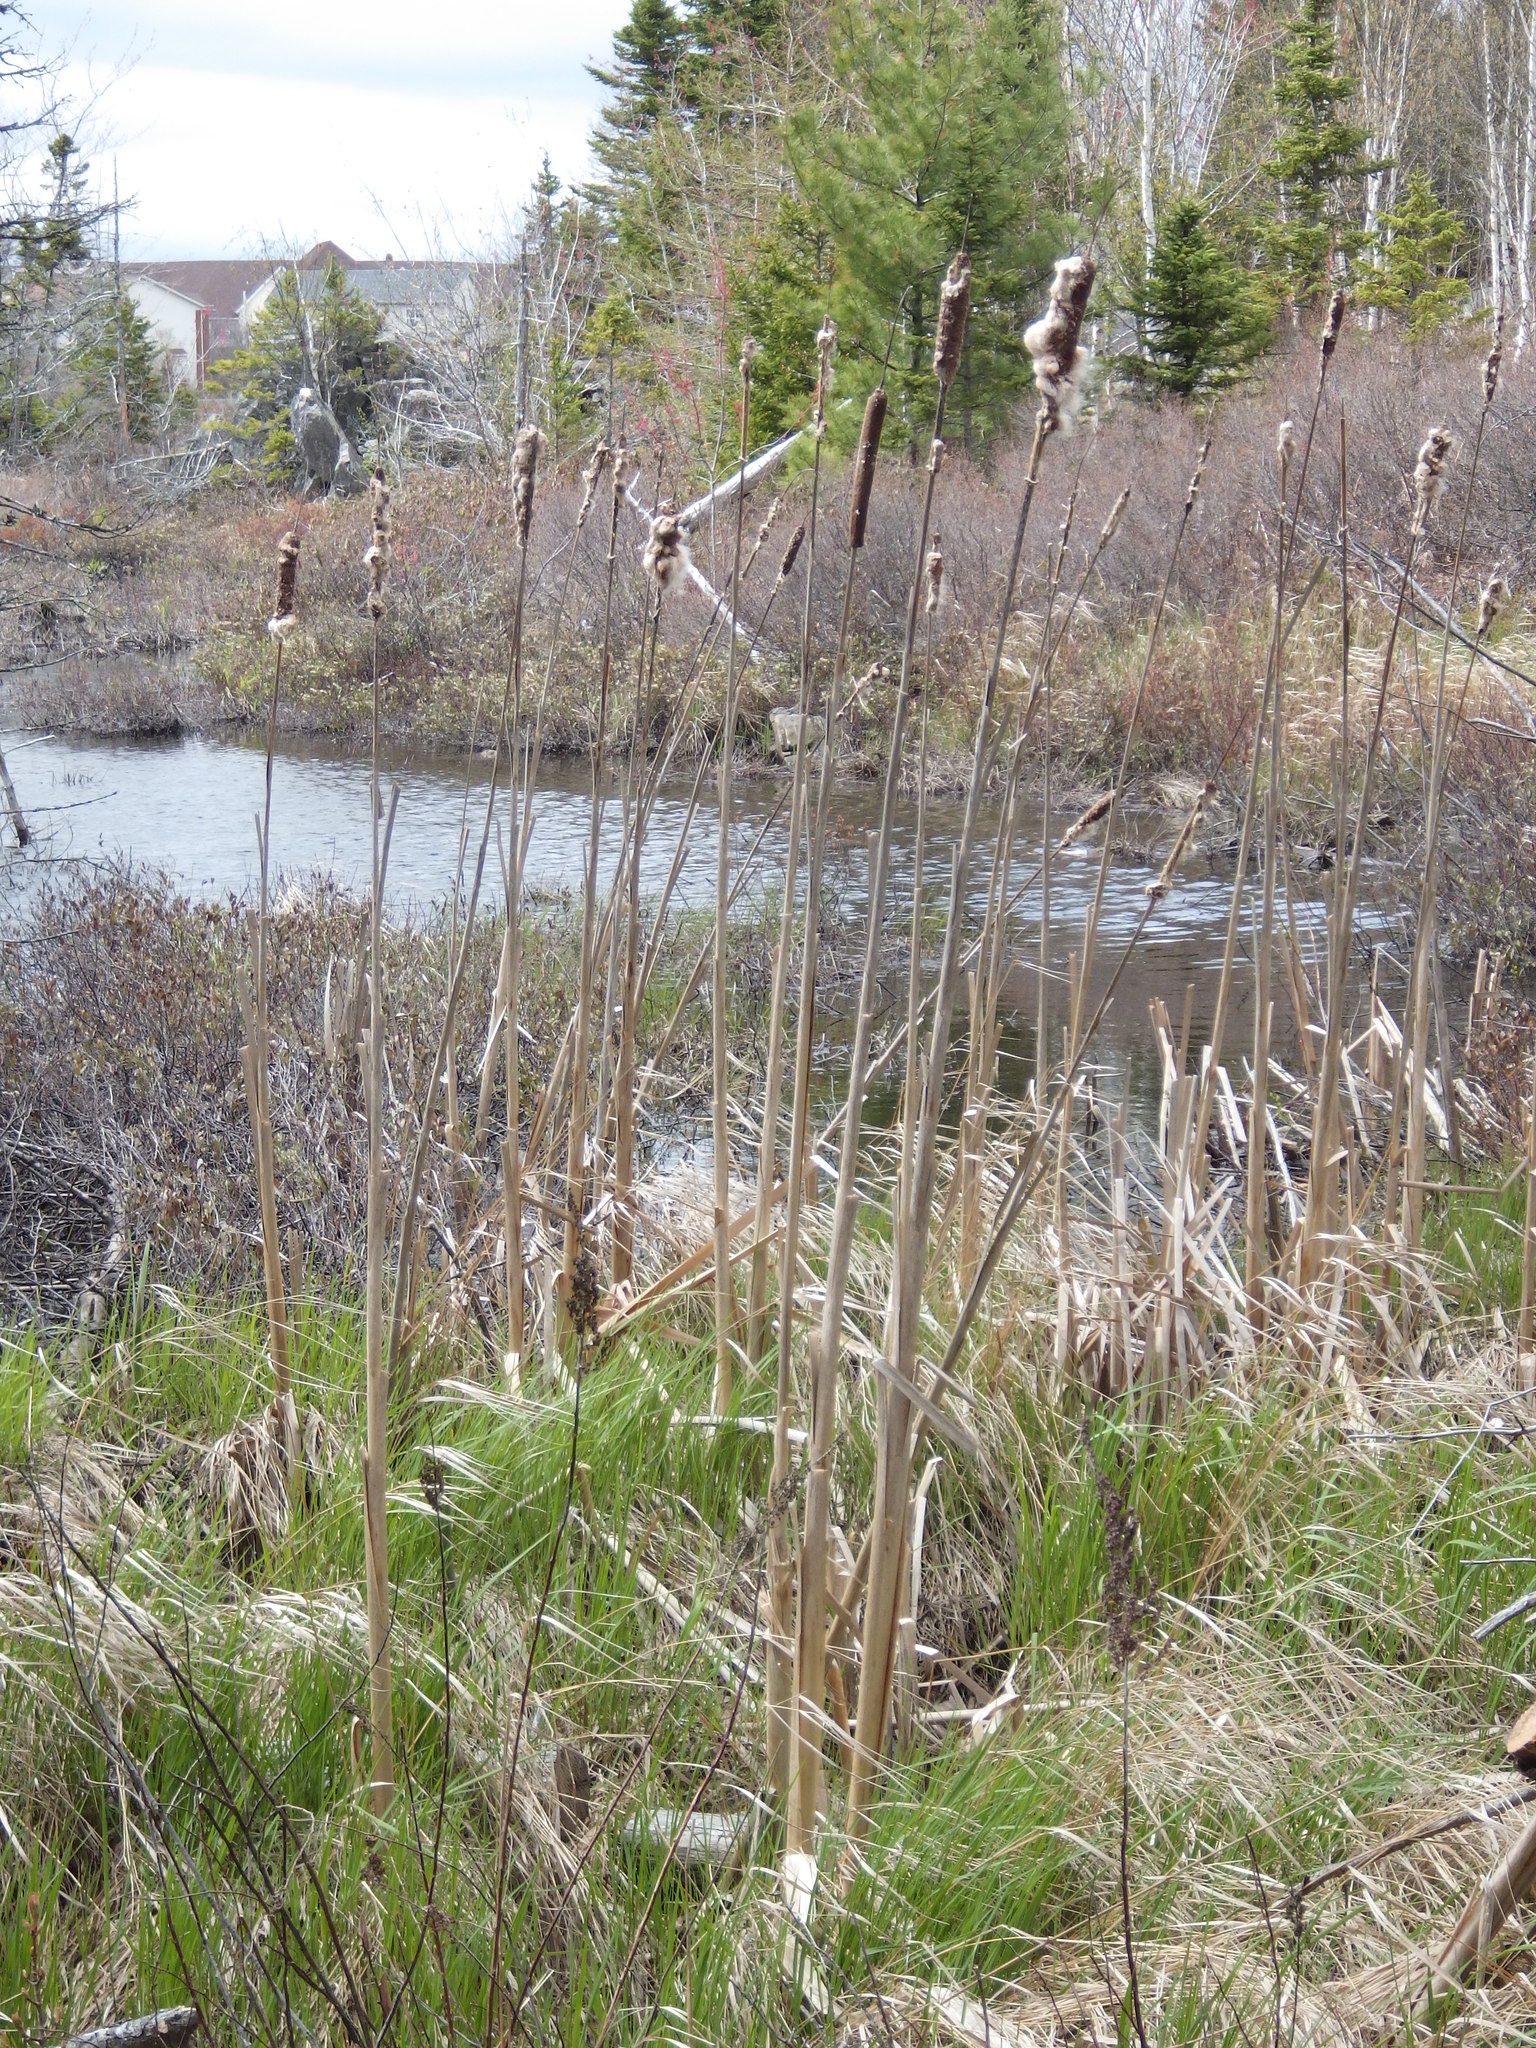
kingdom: Plantae
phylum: Tracheophyta
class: Liliopsida
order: Poales
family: Typhaceae
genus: Typha
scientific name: Typha latifolia
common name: Broadleaf cattail
